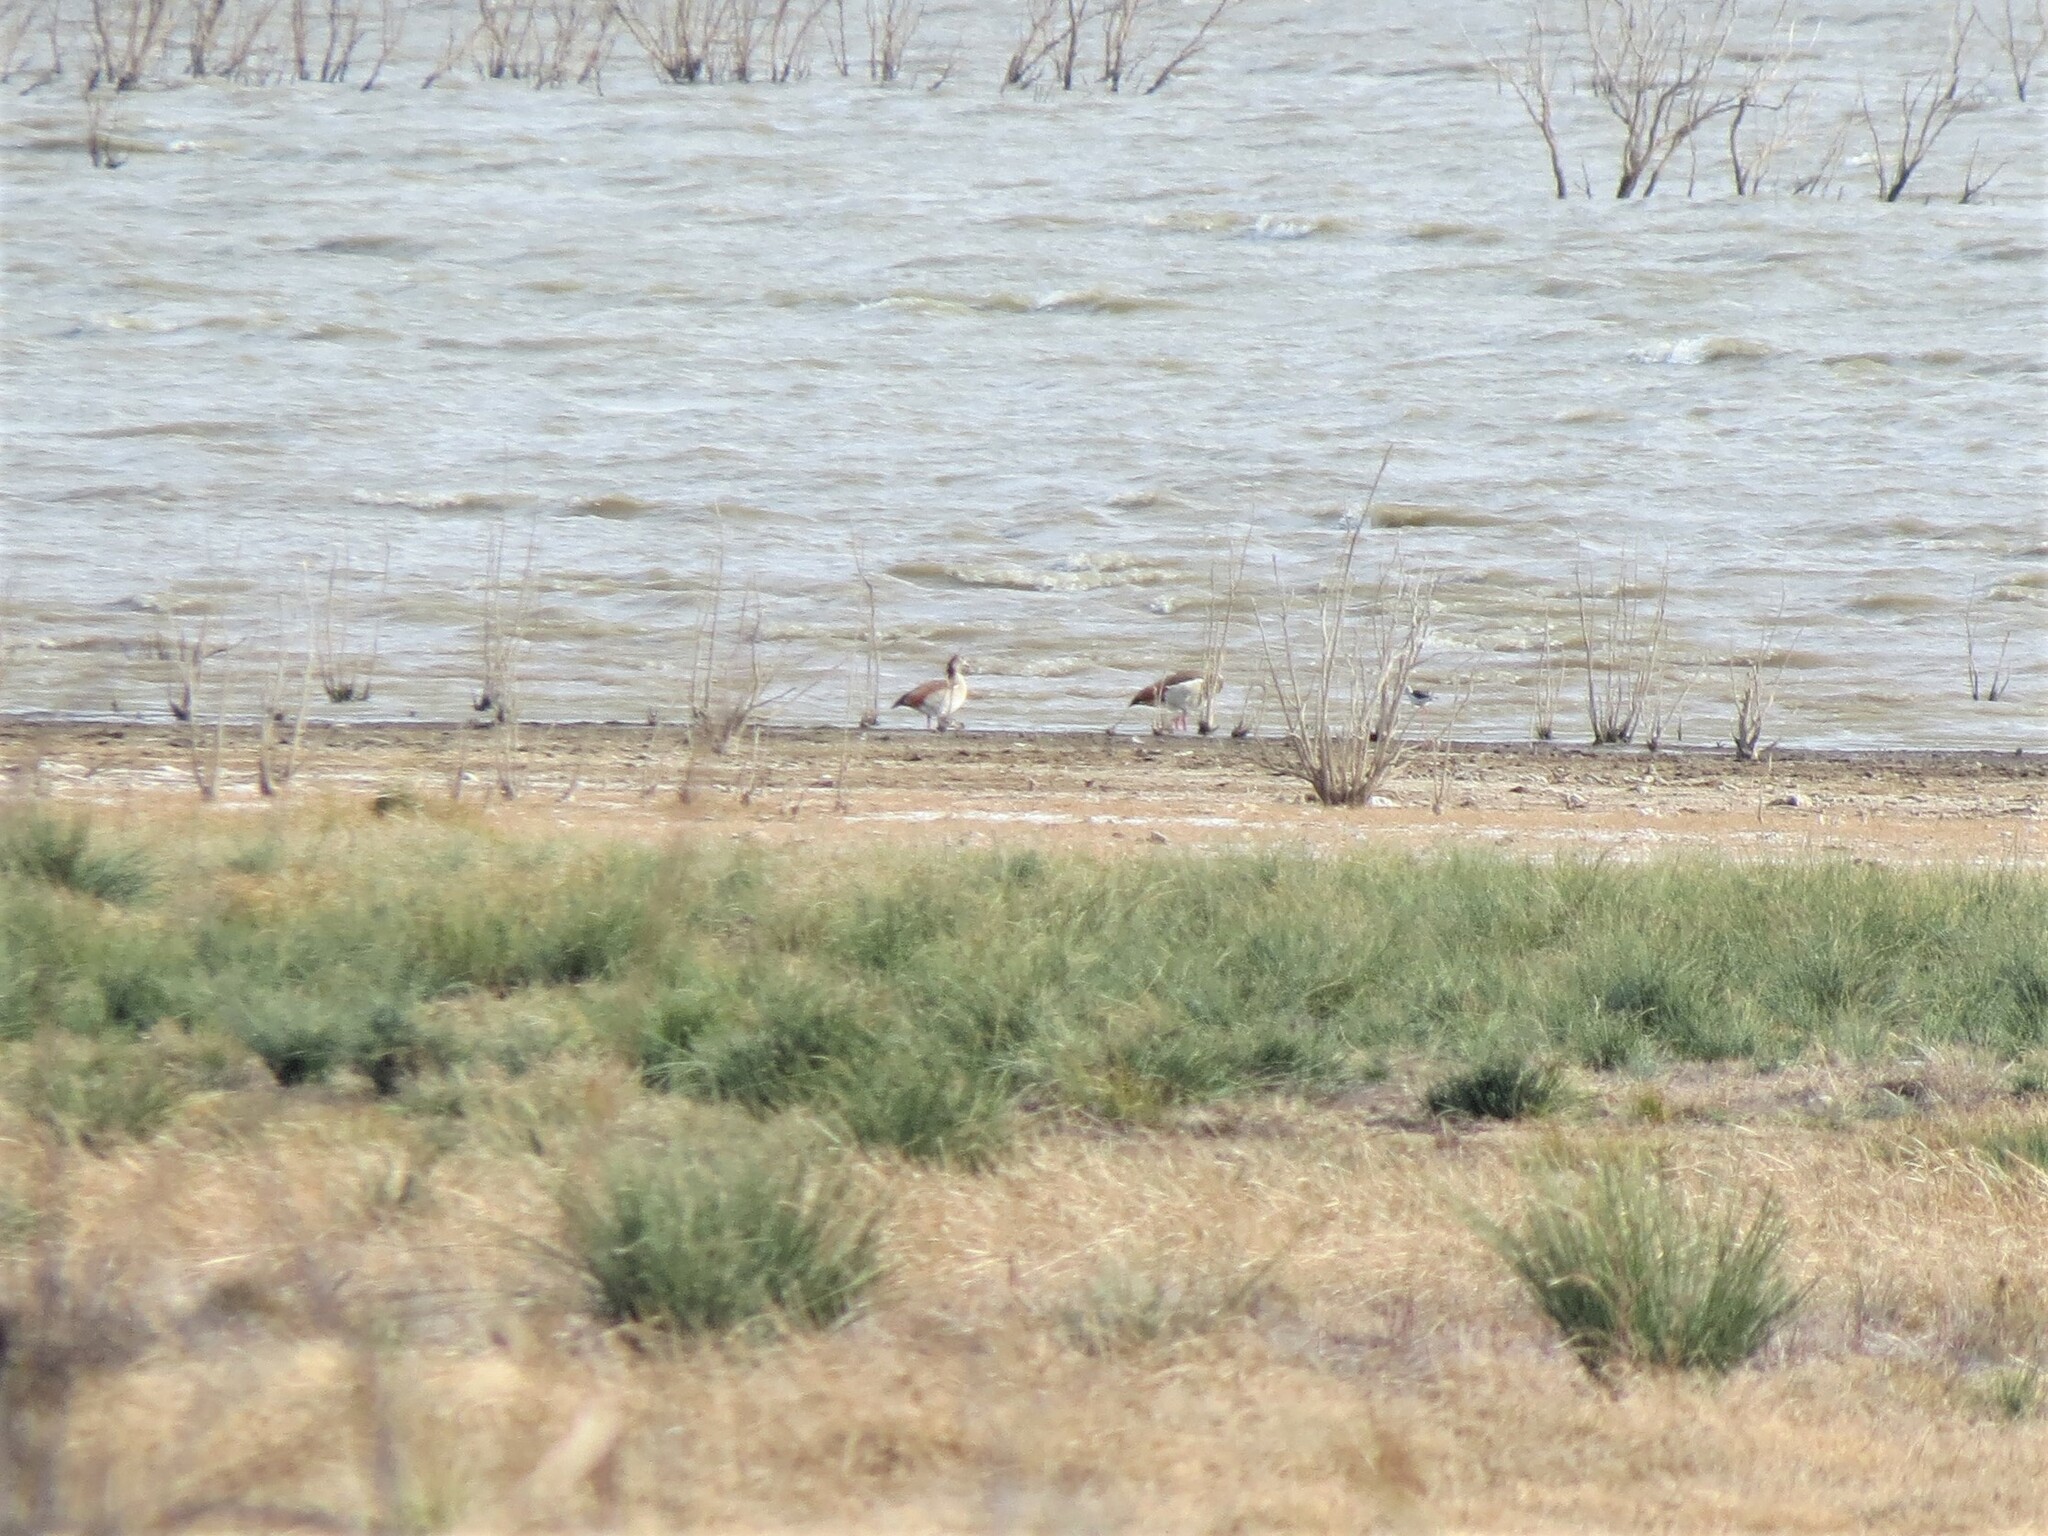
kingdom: Animalia
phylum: Chordata
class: Aves
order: Anseriformes
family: Anatidae
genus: Alopochen
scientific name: Alopochen aegyptiaca
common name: Egyptian goose
